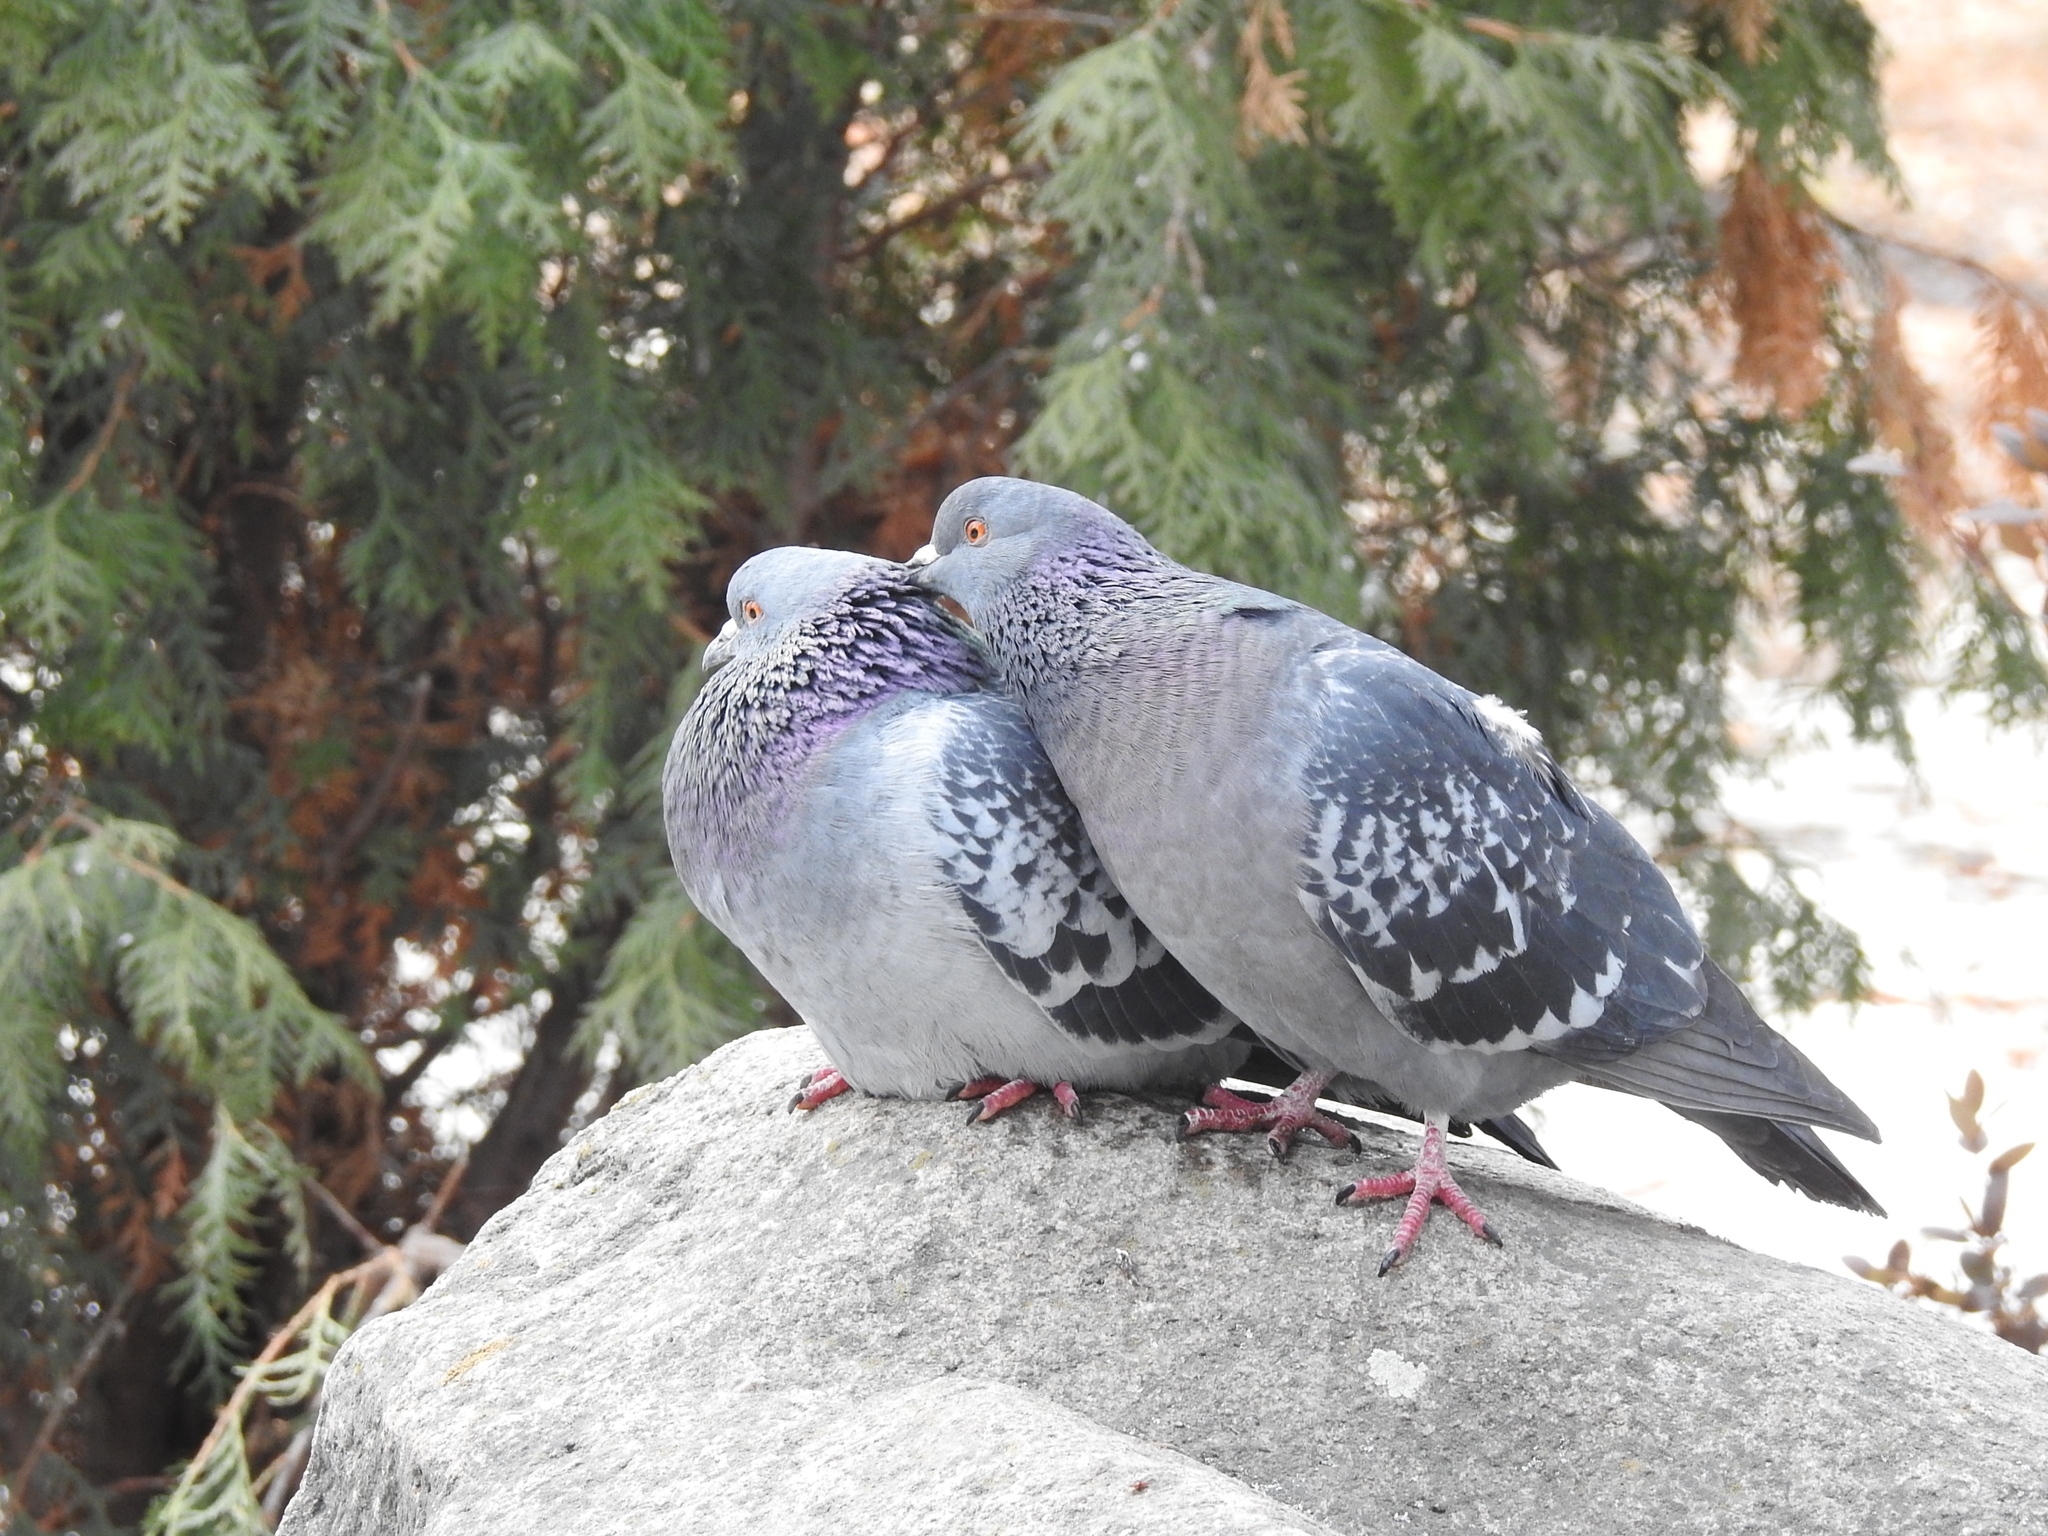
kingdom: Animalia
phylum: Chordata
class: Aves
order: Columbiformes
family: Columbidae
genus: Columba
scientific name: Columba livia
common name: Rock pigeon
